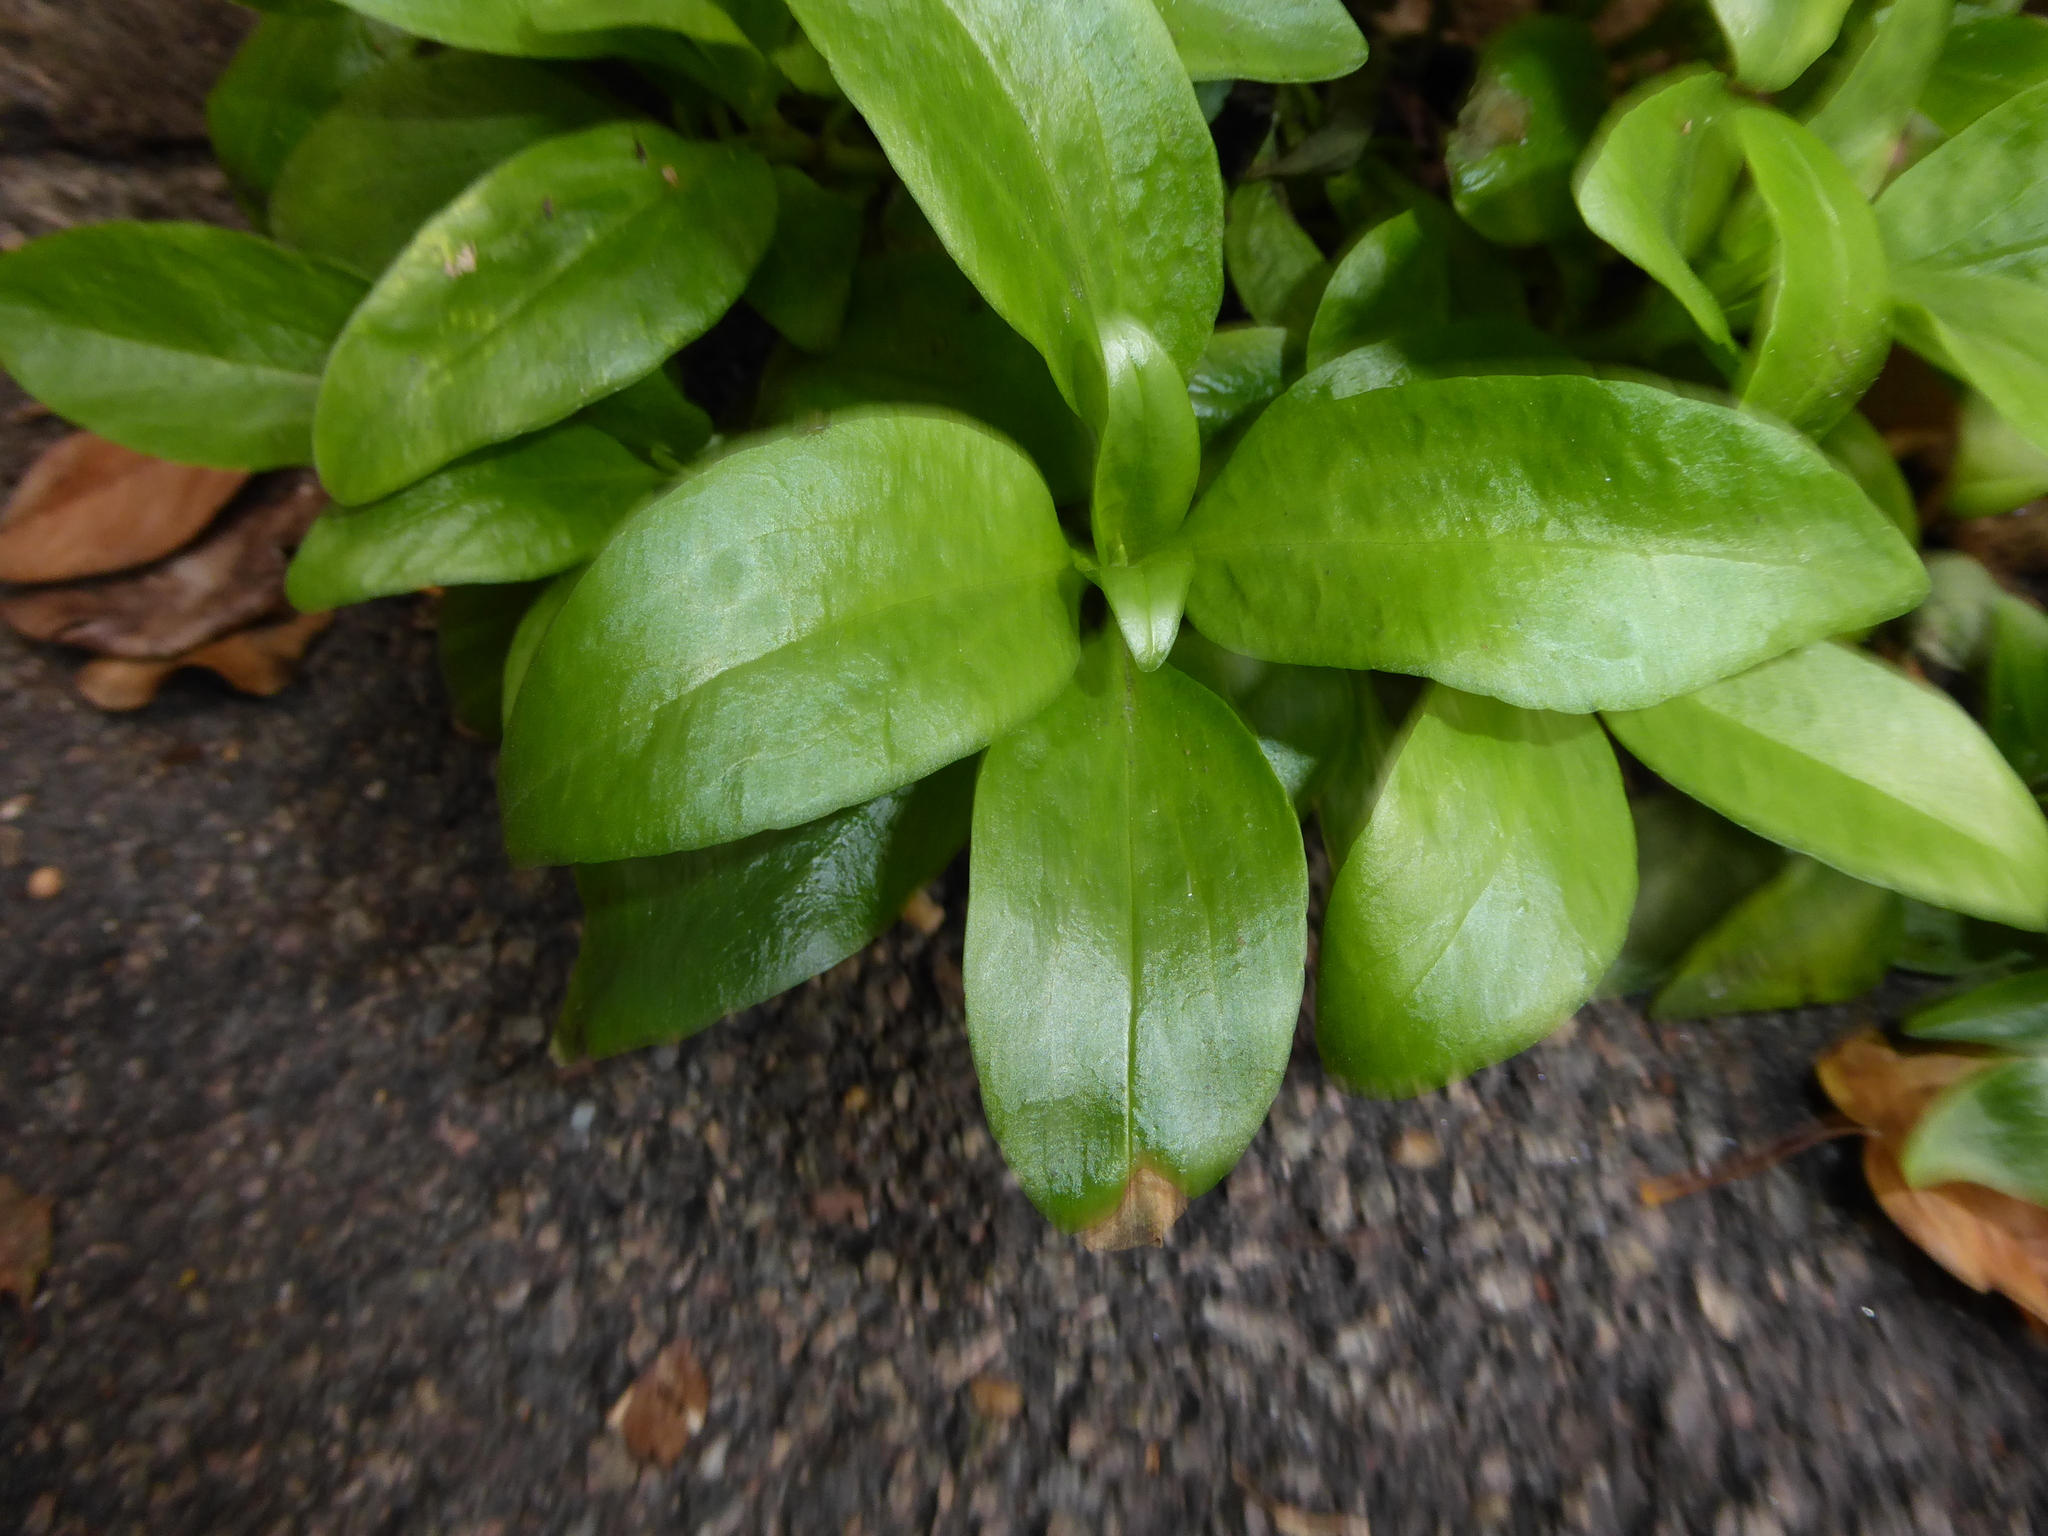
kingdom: Plantae
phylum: Tracheophyta
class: Magnoliopsida
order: Dipsacales
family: Caprifoliaceae
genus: Centranthus
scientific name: Centranthus ruber
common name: Red valerian
